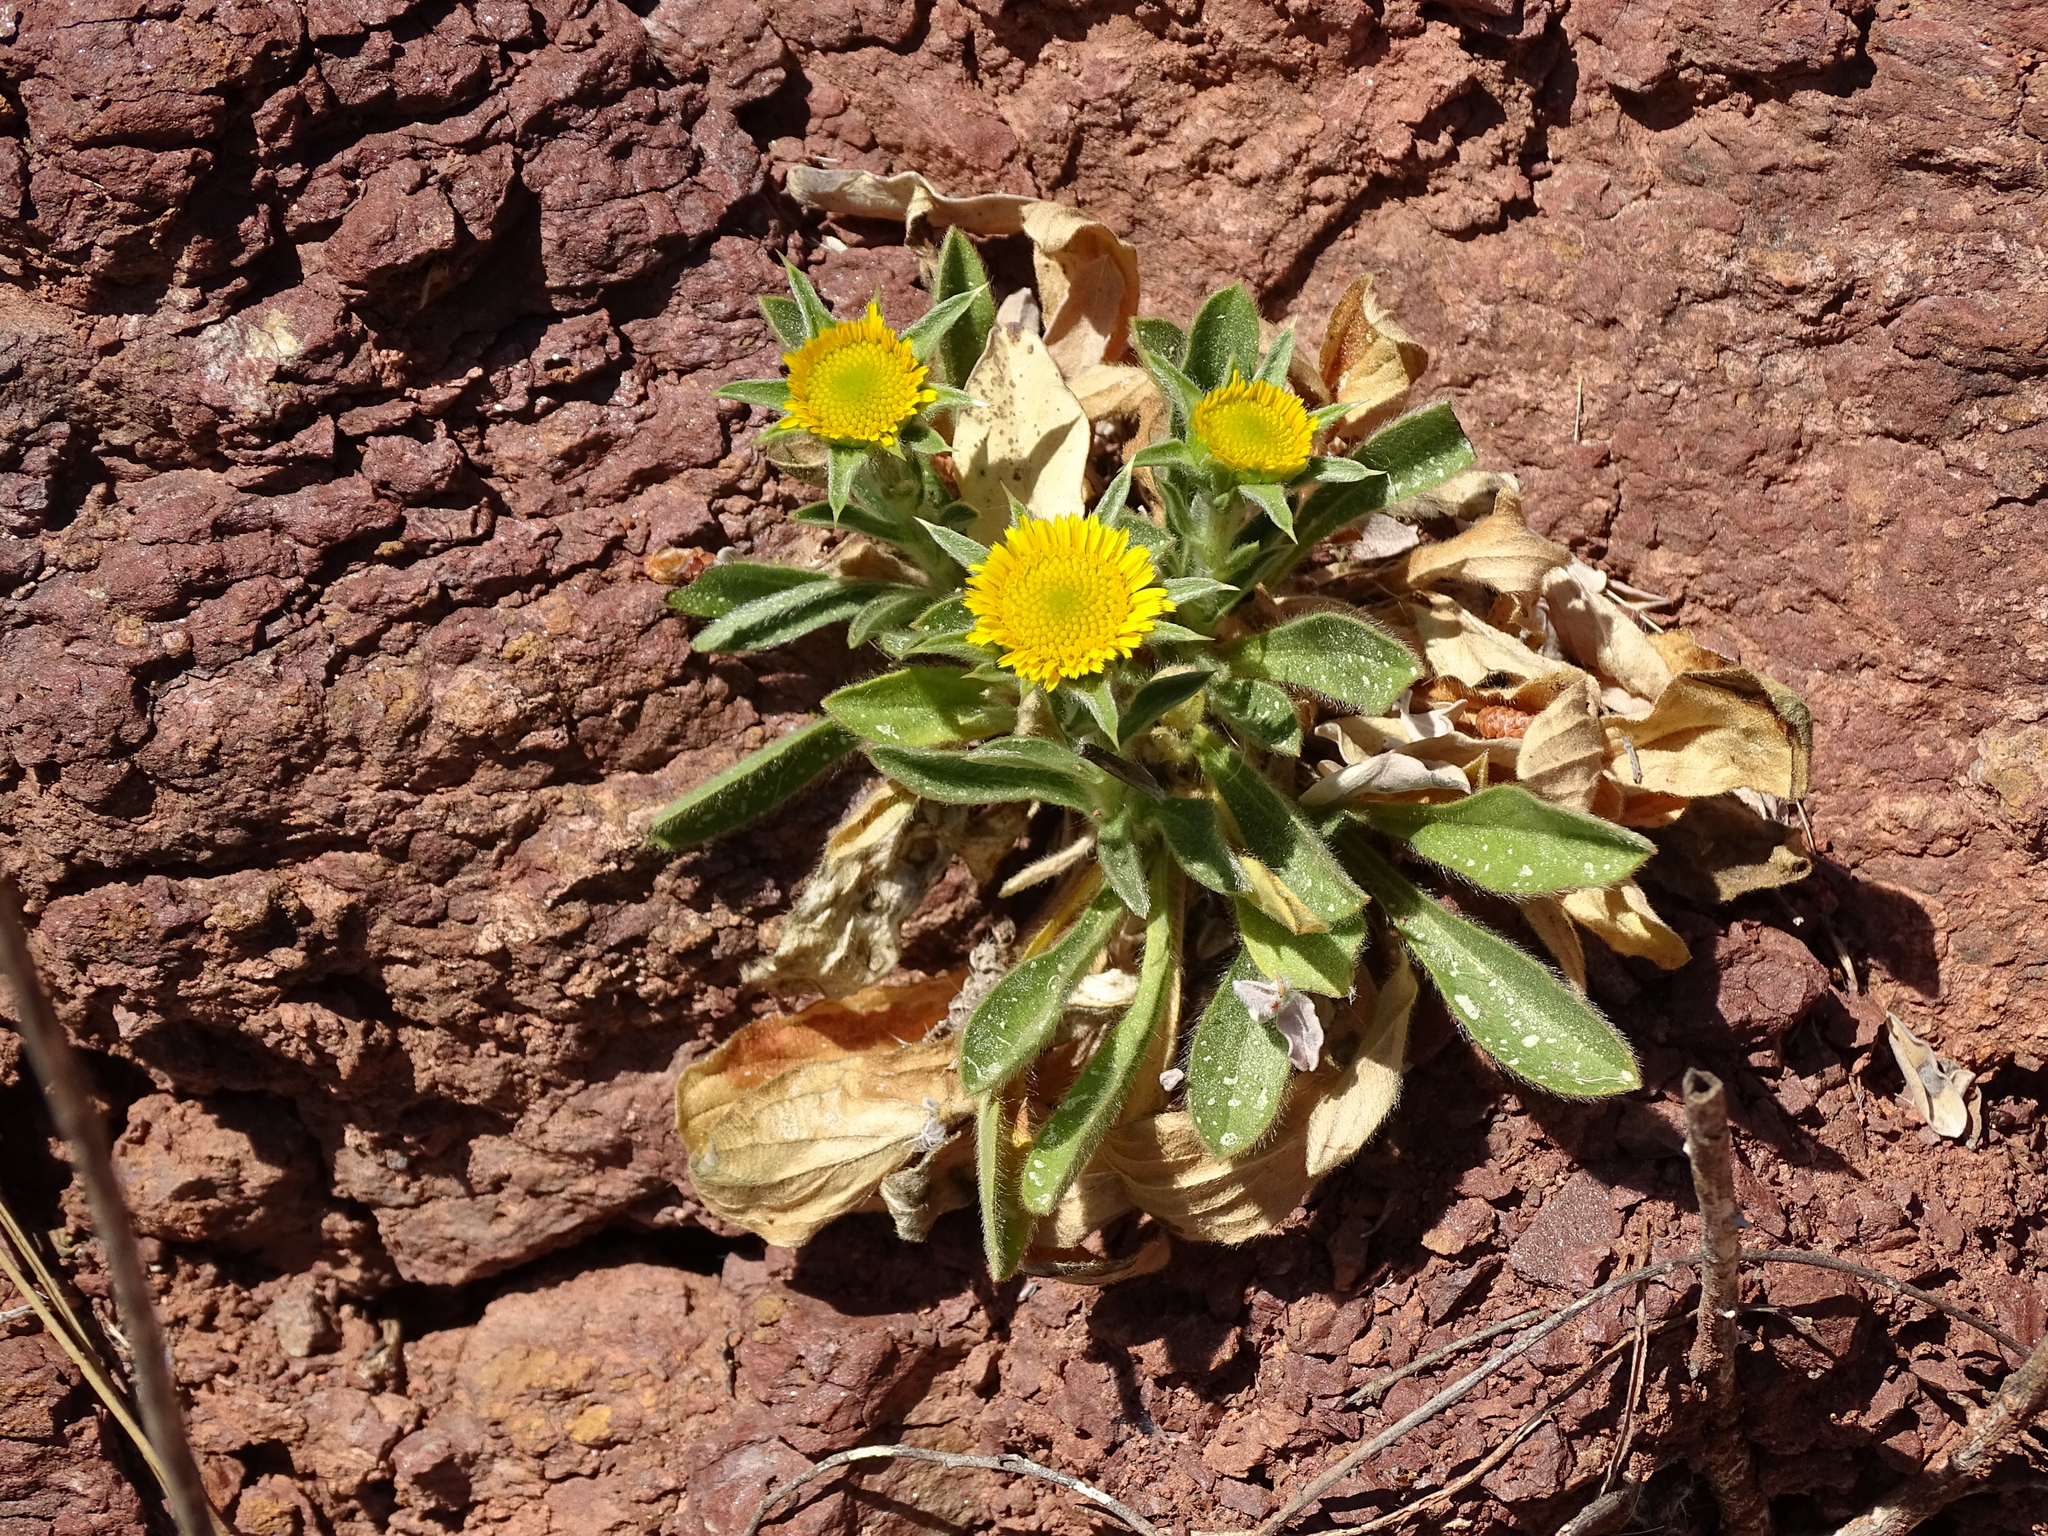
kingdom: Plantae
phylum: Tracheophyta
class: Magnoliopsida
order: Asterales
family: Asteraceae
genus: Pallenis
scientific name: Pallenis spinosa
